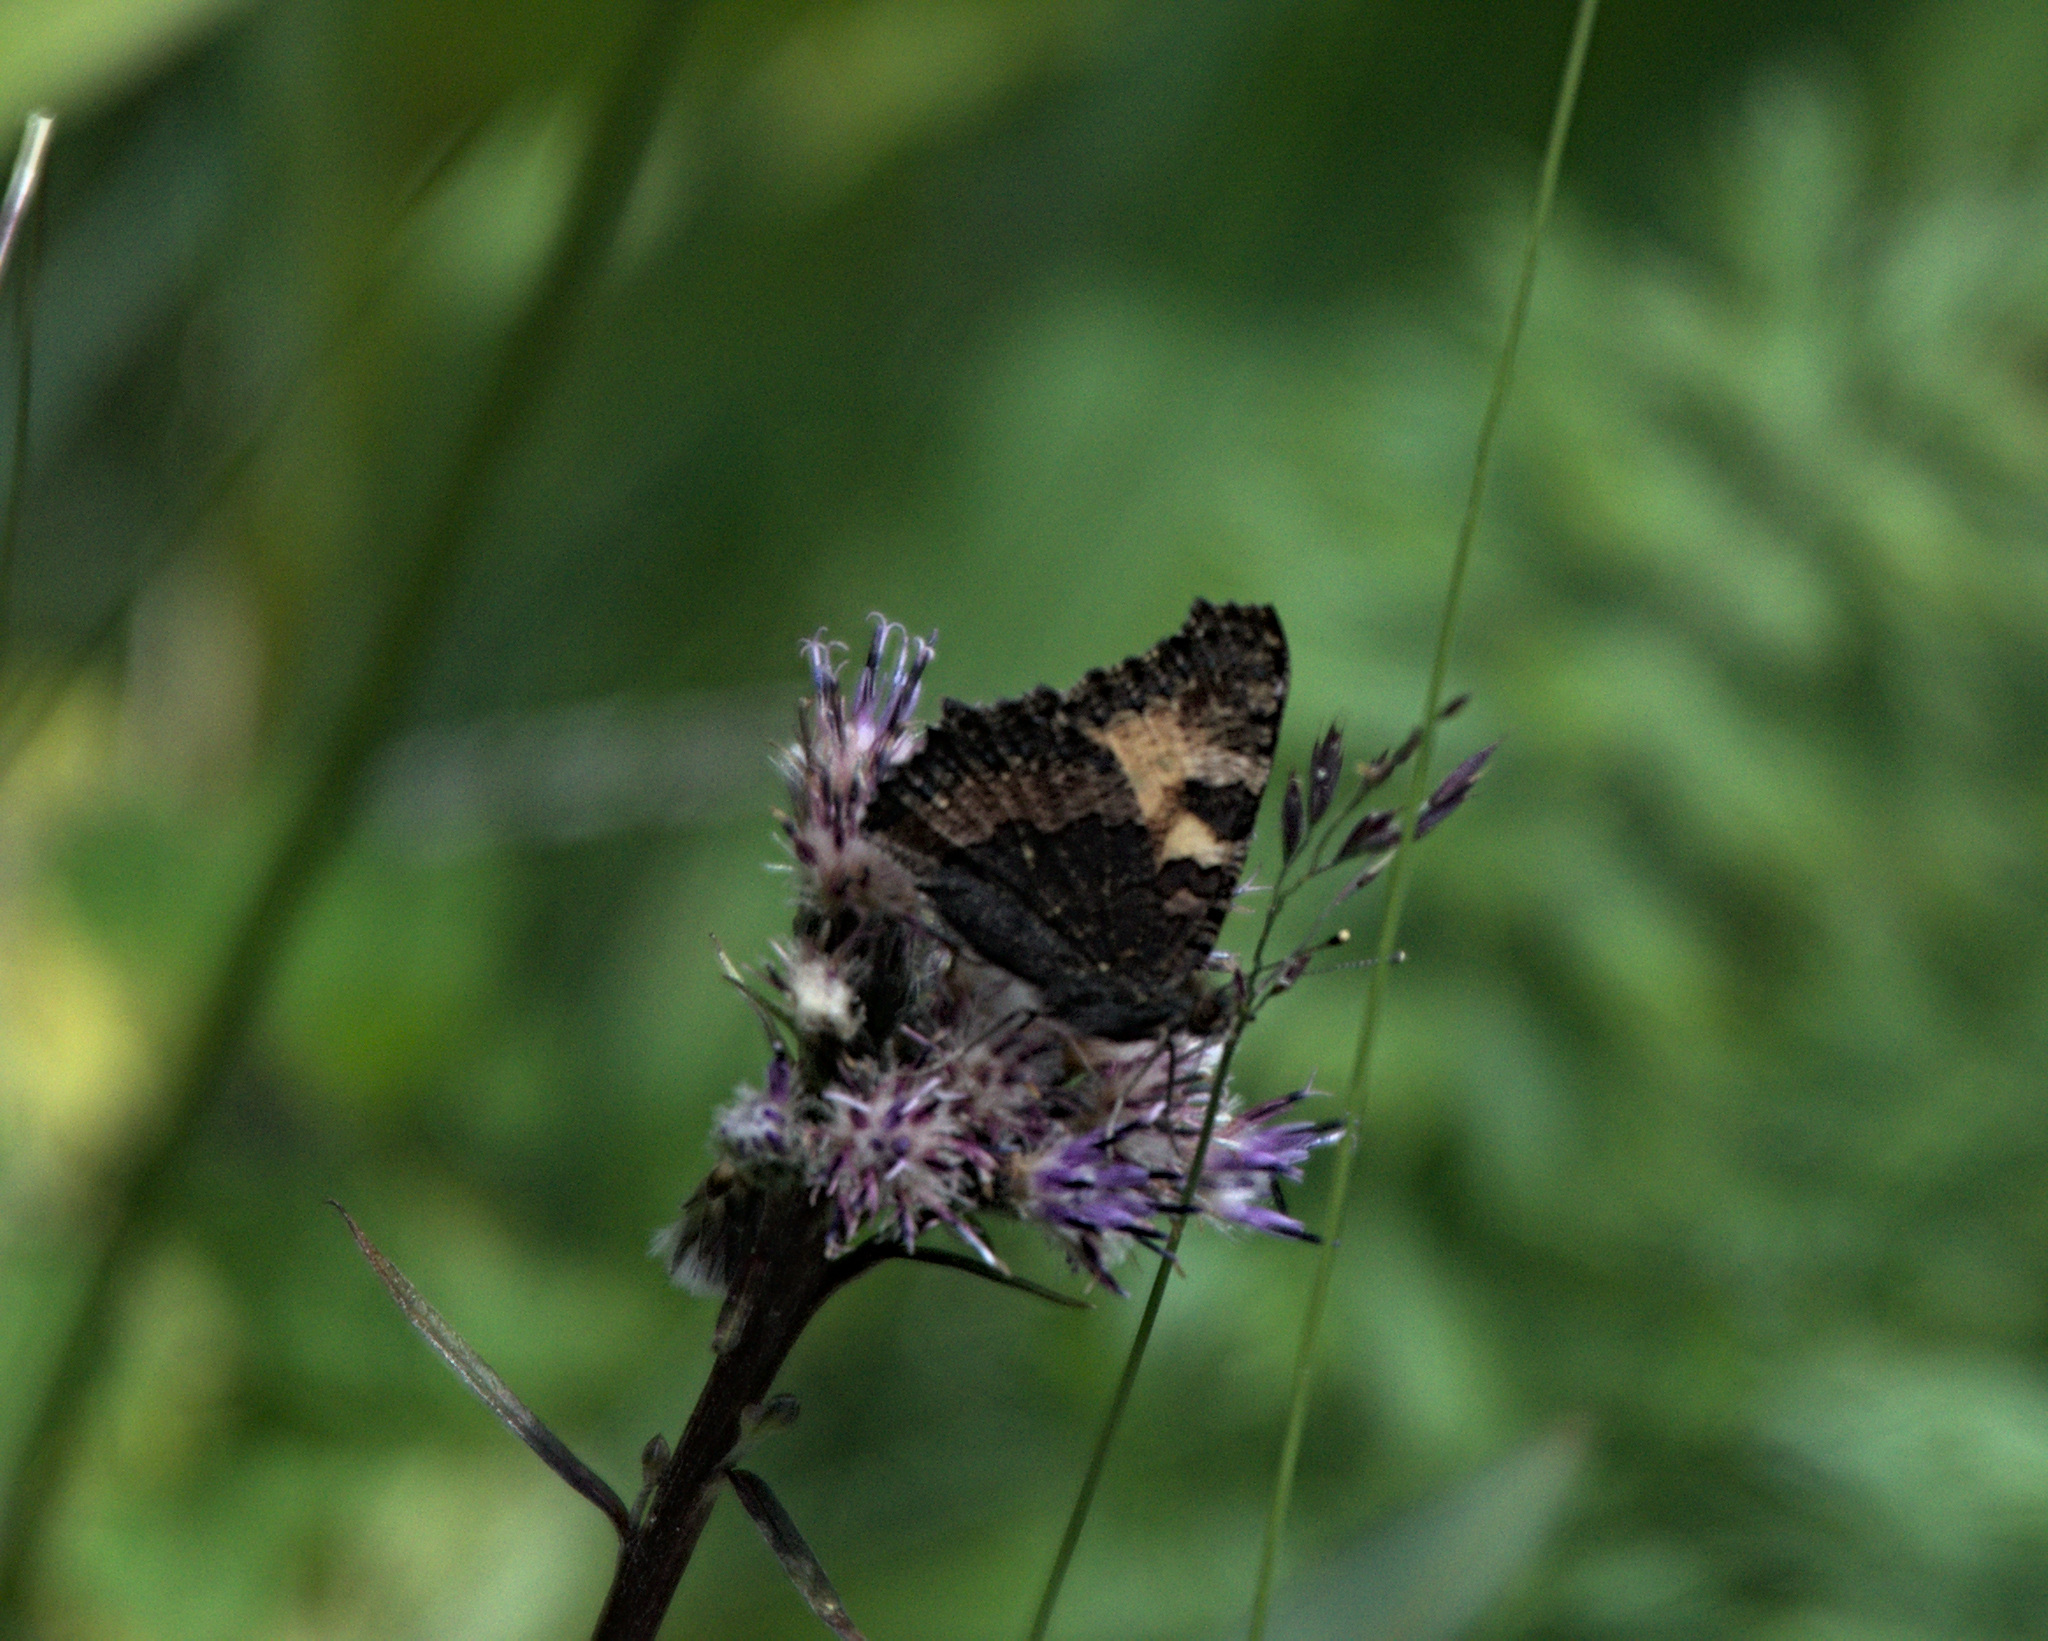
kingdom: Animalia
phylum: Arthropoda
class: Insecta
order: Lepidoptera
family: Nymphalidae
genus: Aglais
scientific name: Aglais urticae
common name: Small tortoiseshell
